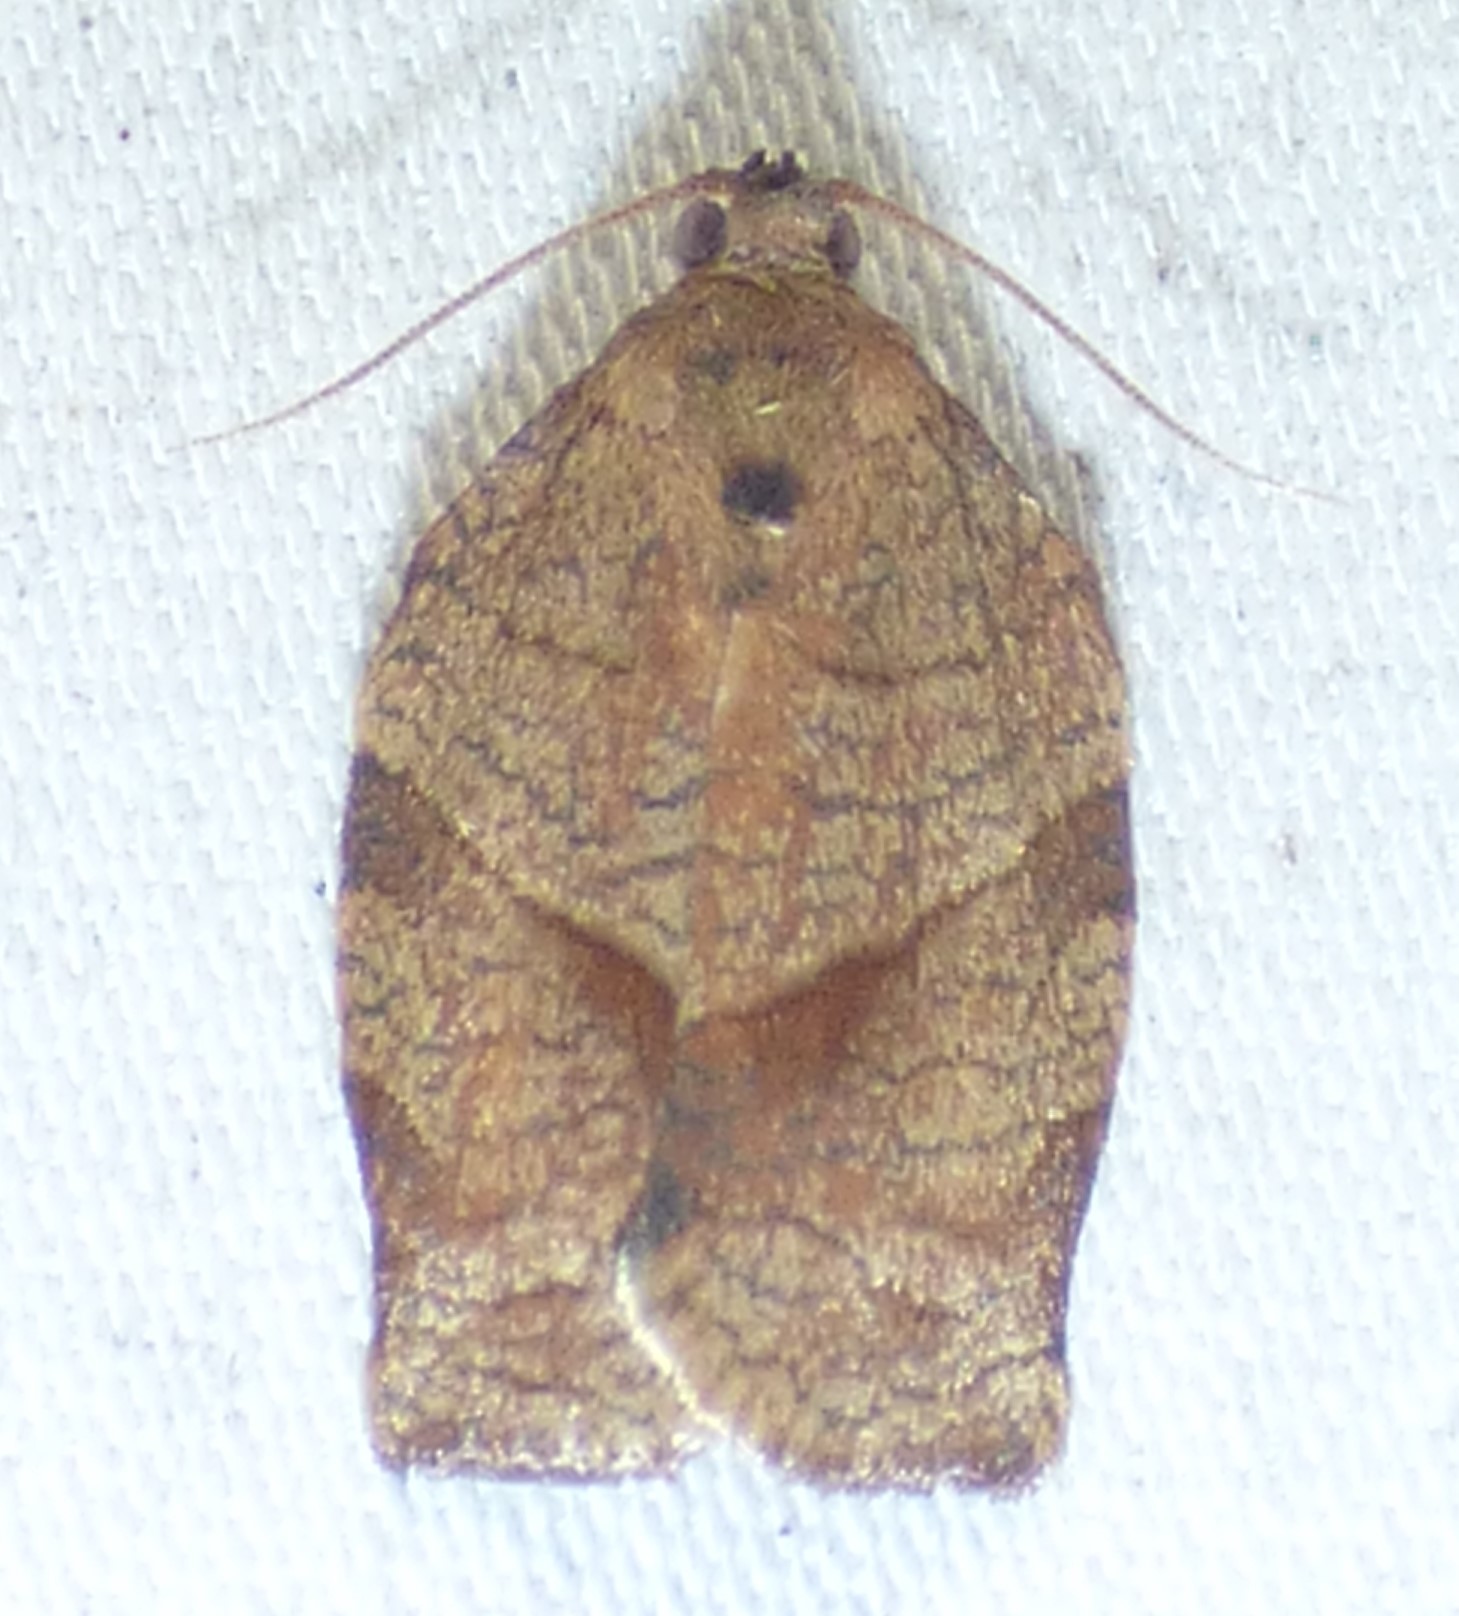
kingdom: Animalia
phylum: Arthropoda
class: Insecta
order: Lepidoptera
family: Tortricidae
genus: Choristoneura
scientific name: Choristoneura rosaceana
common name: Oblique-banded leafroller moth
